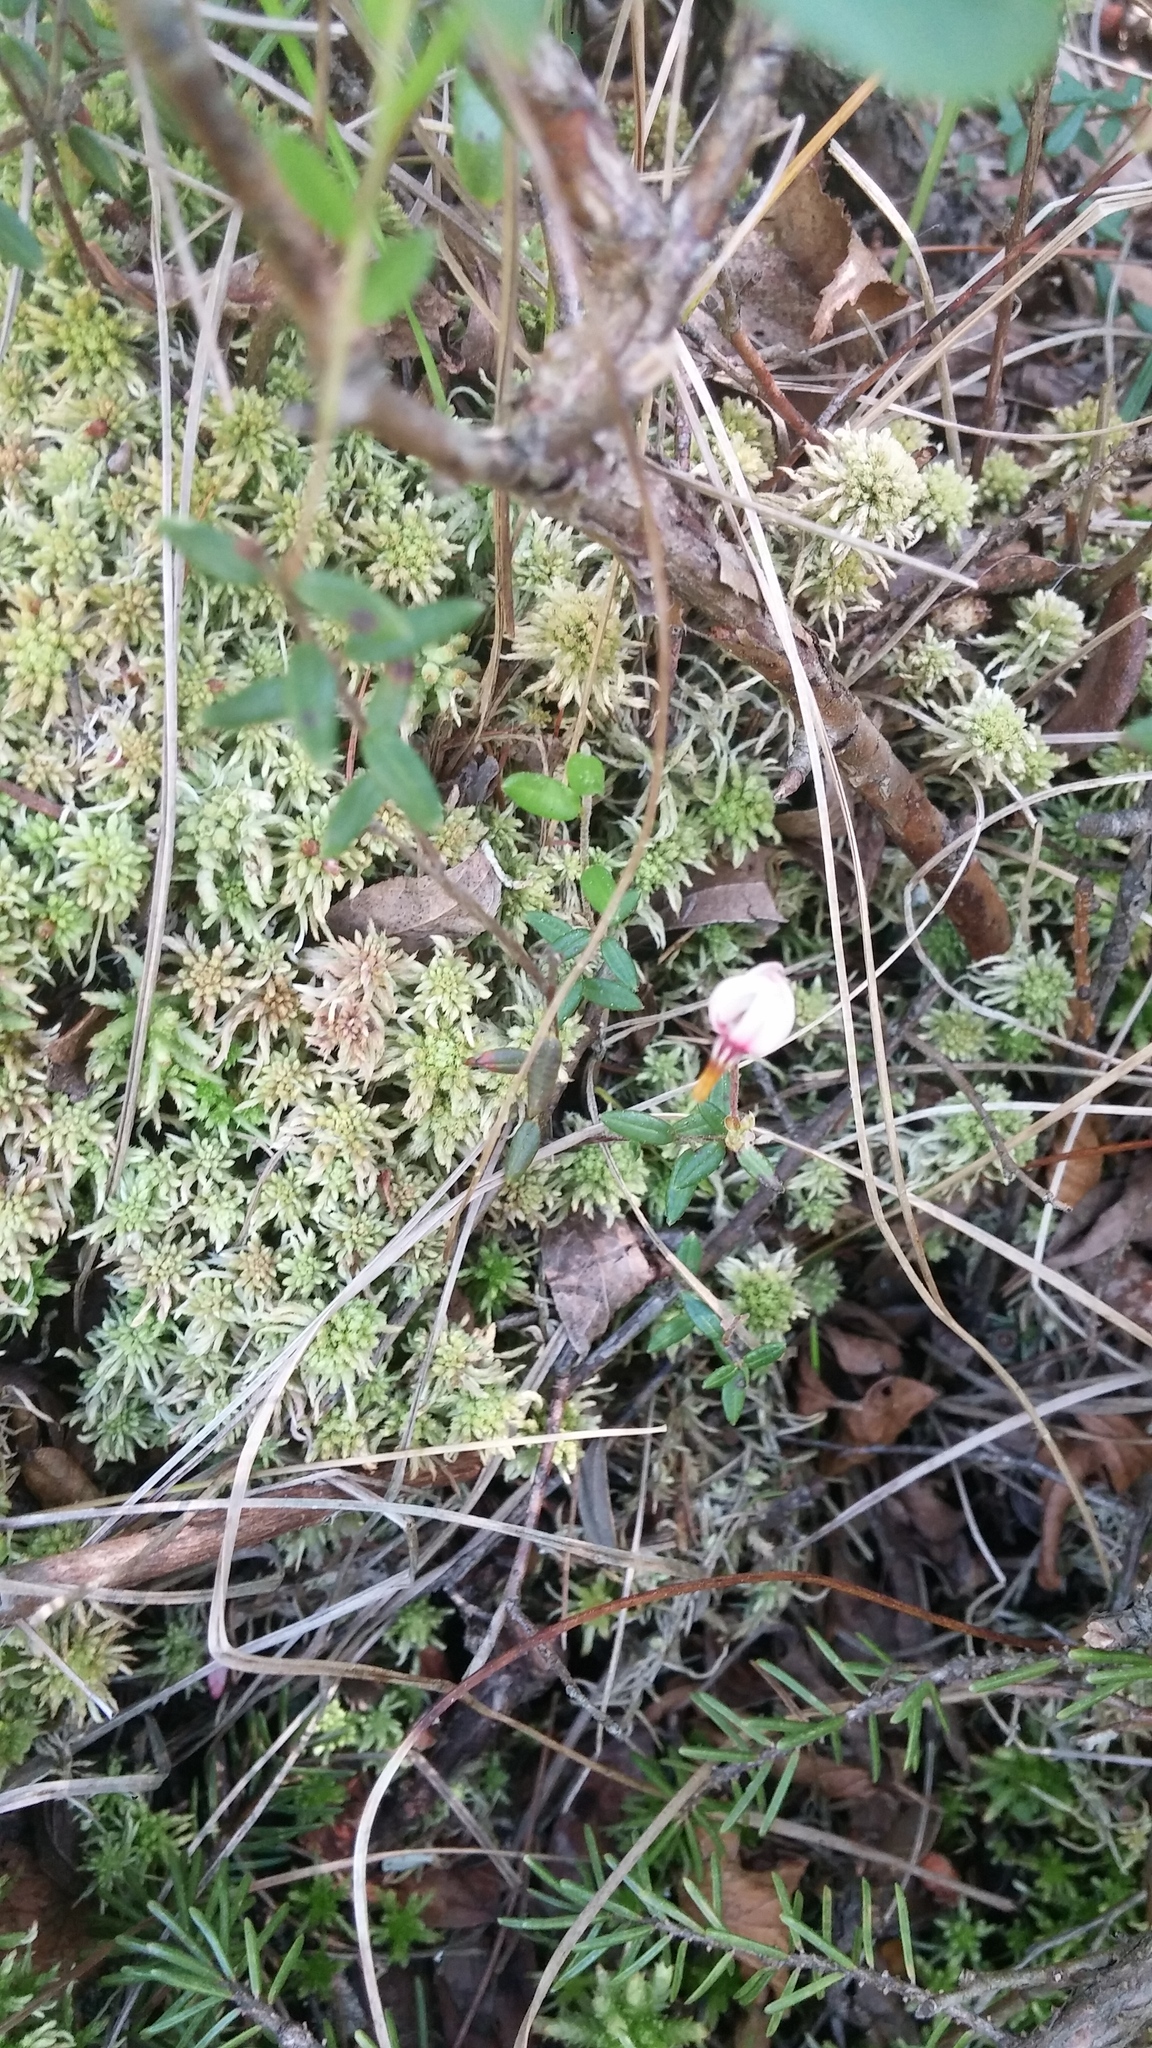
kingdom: Plantae
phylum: Tracheophyta
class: Magnoliopsida
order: Ericales
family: Ericaceae
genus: Vaccinium
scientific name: Vaccinium oxycoccos
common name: Cranberry
